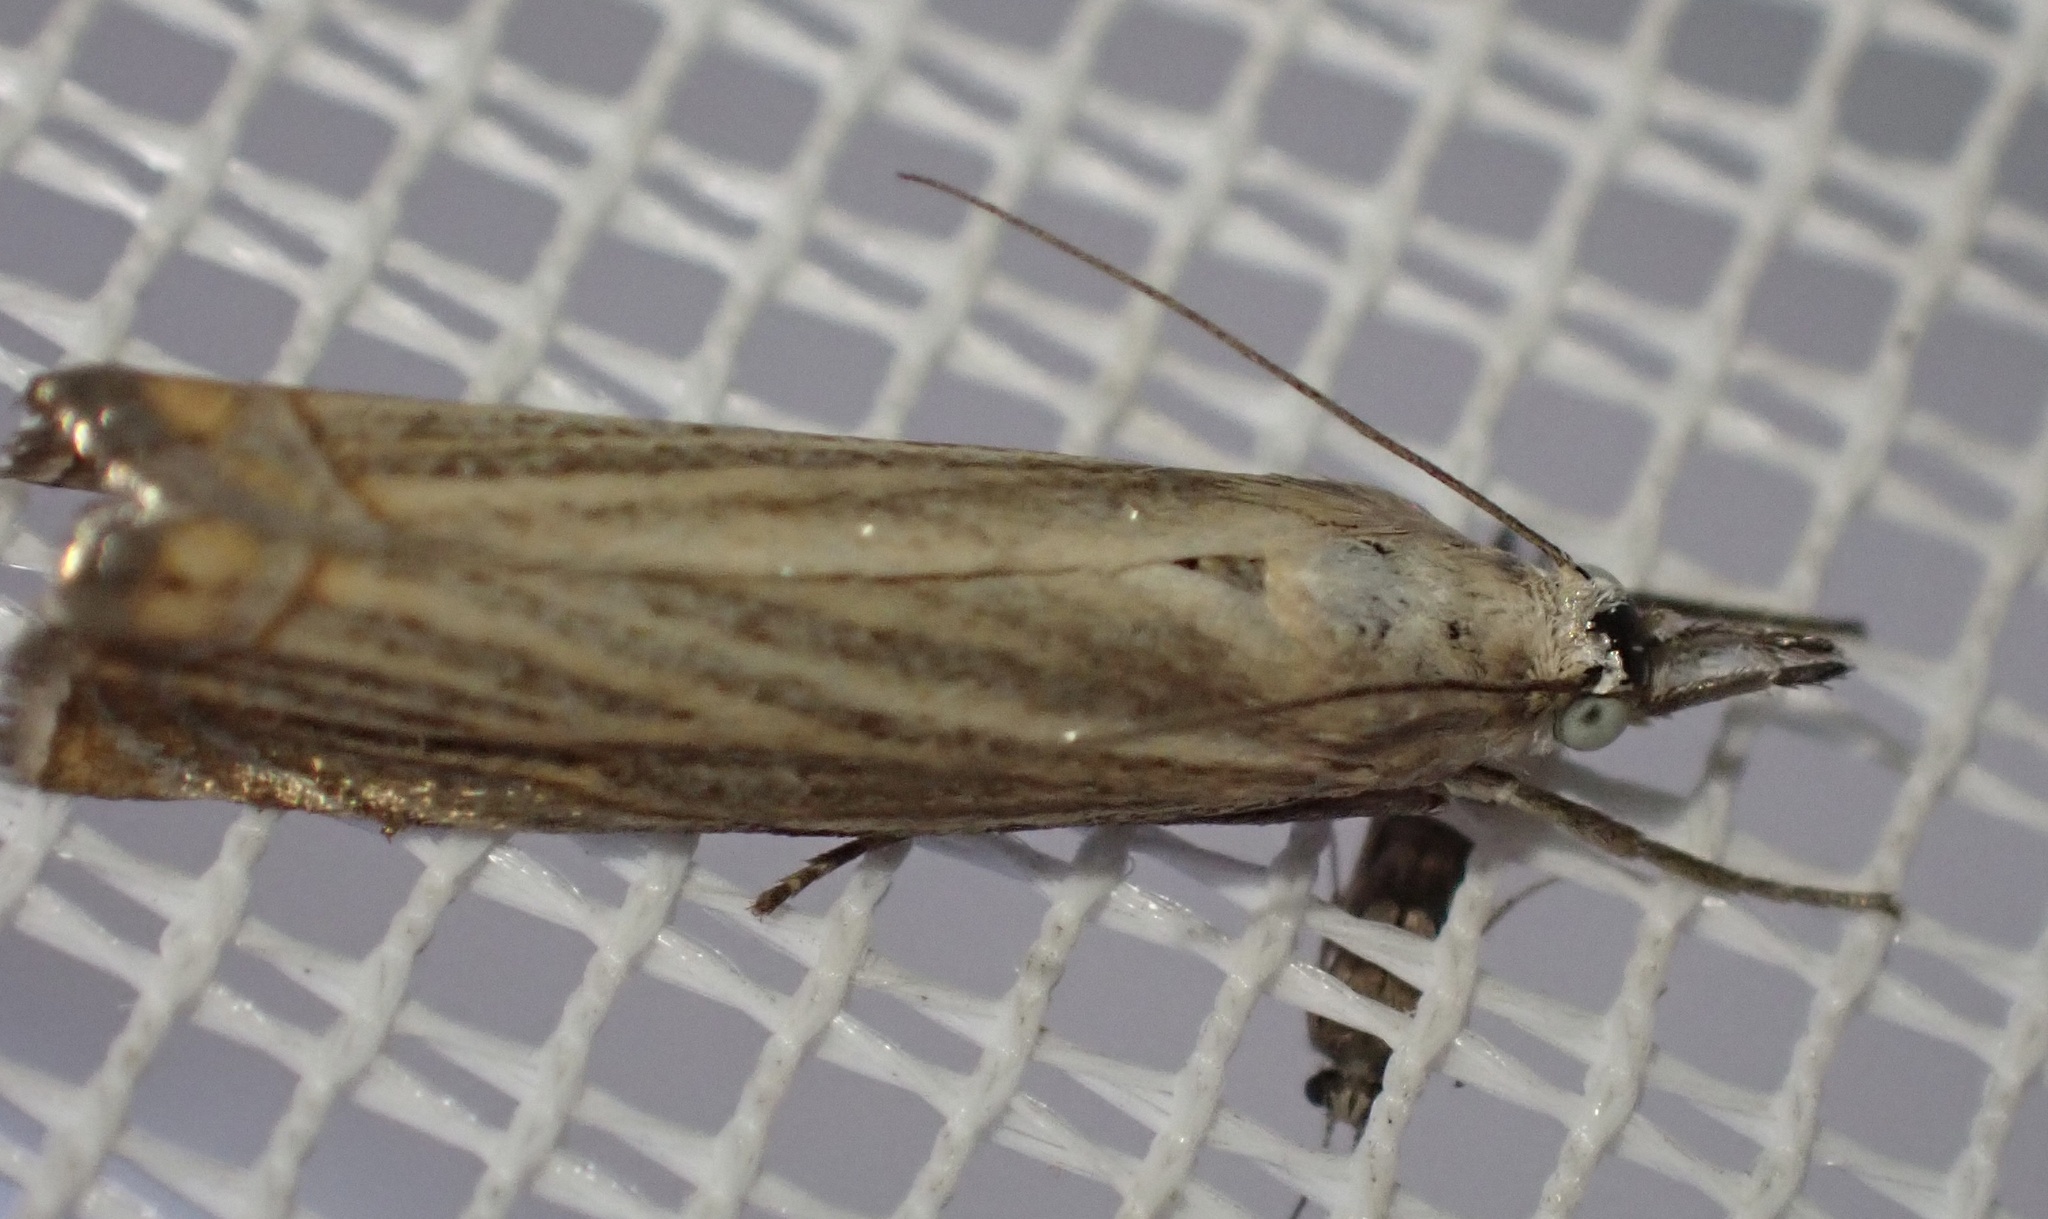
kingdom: Animalia
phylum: Arthropoda
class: Insecta
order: Lepidoptera
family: Crambidae
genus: Chrysoteuchia
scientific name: Chrysoteuchia culmella
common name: Garden grass-veneer
